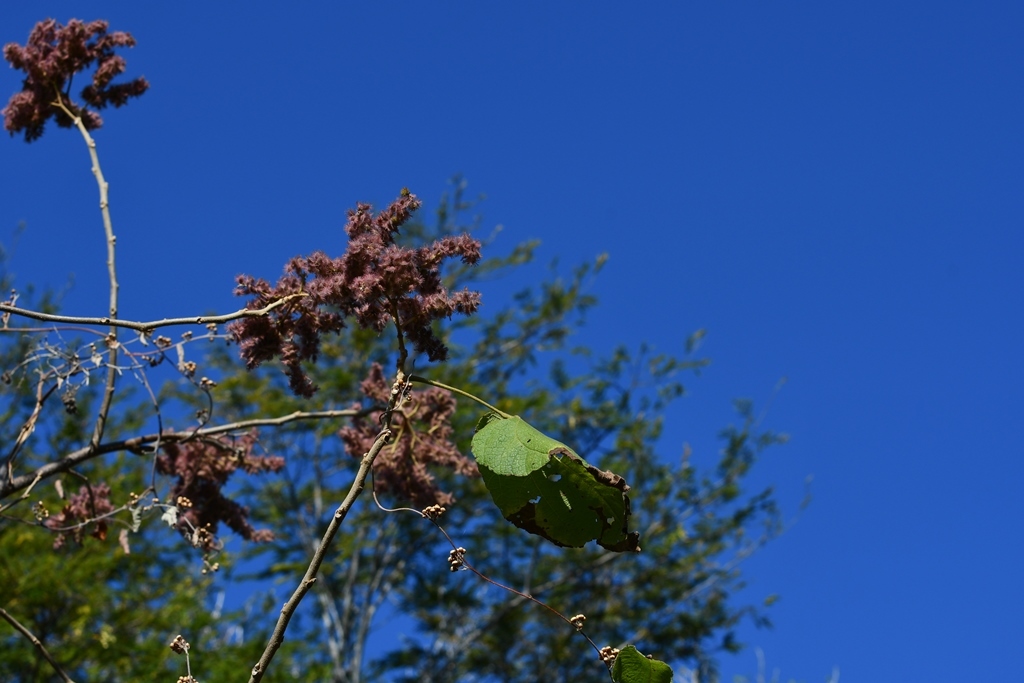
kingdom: Plantae
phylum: Tracheophyta
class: Magnoliopsida
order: Malvales
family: Malvaceae
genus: Heliocarpus
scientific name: Heliocarpus terebinthinaceus
